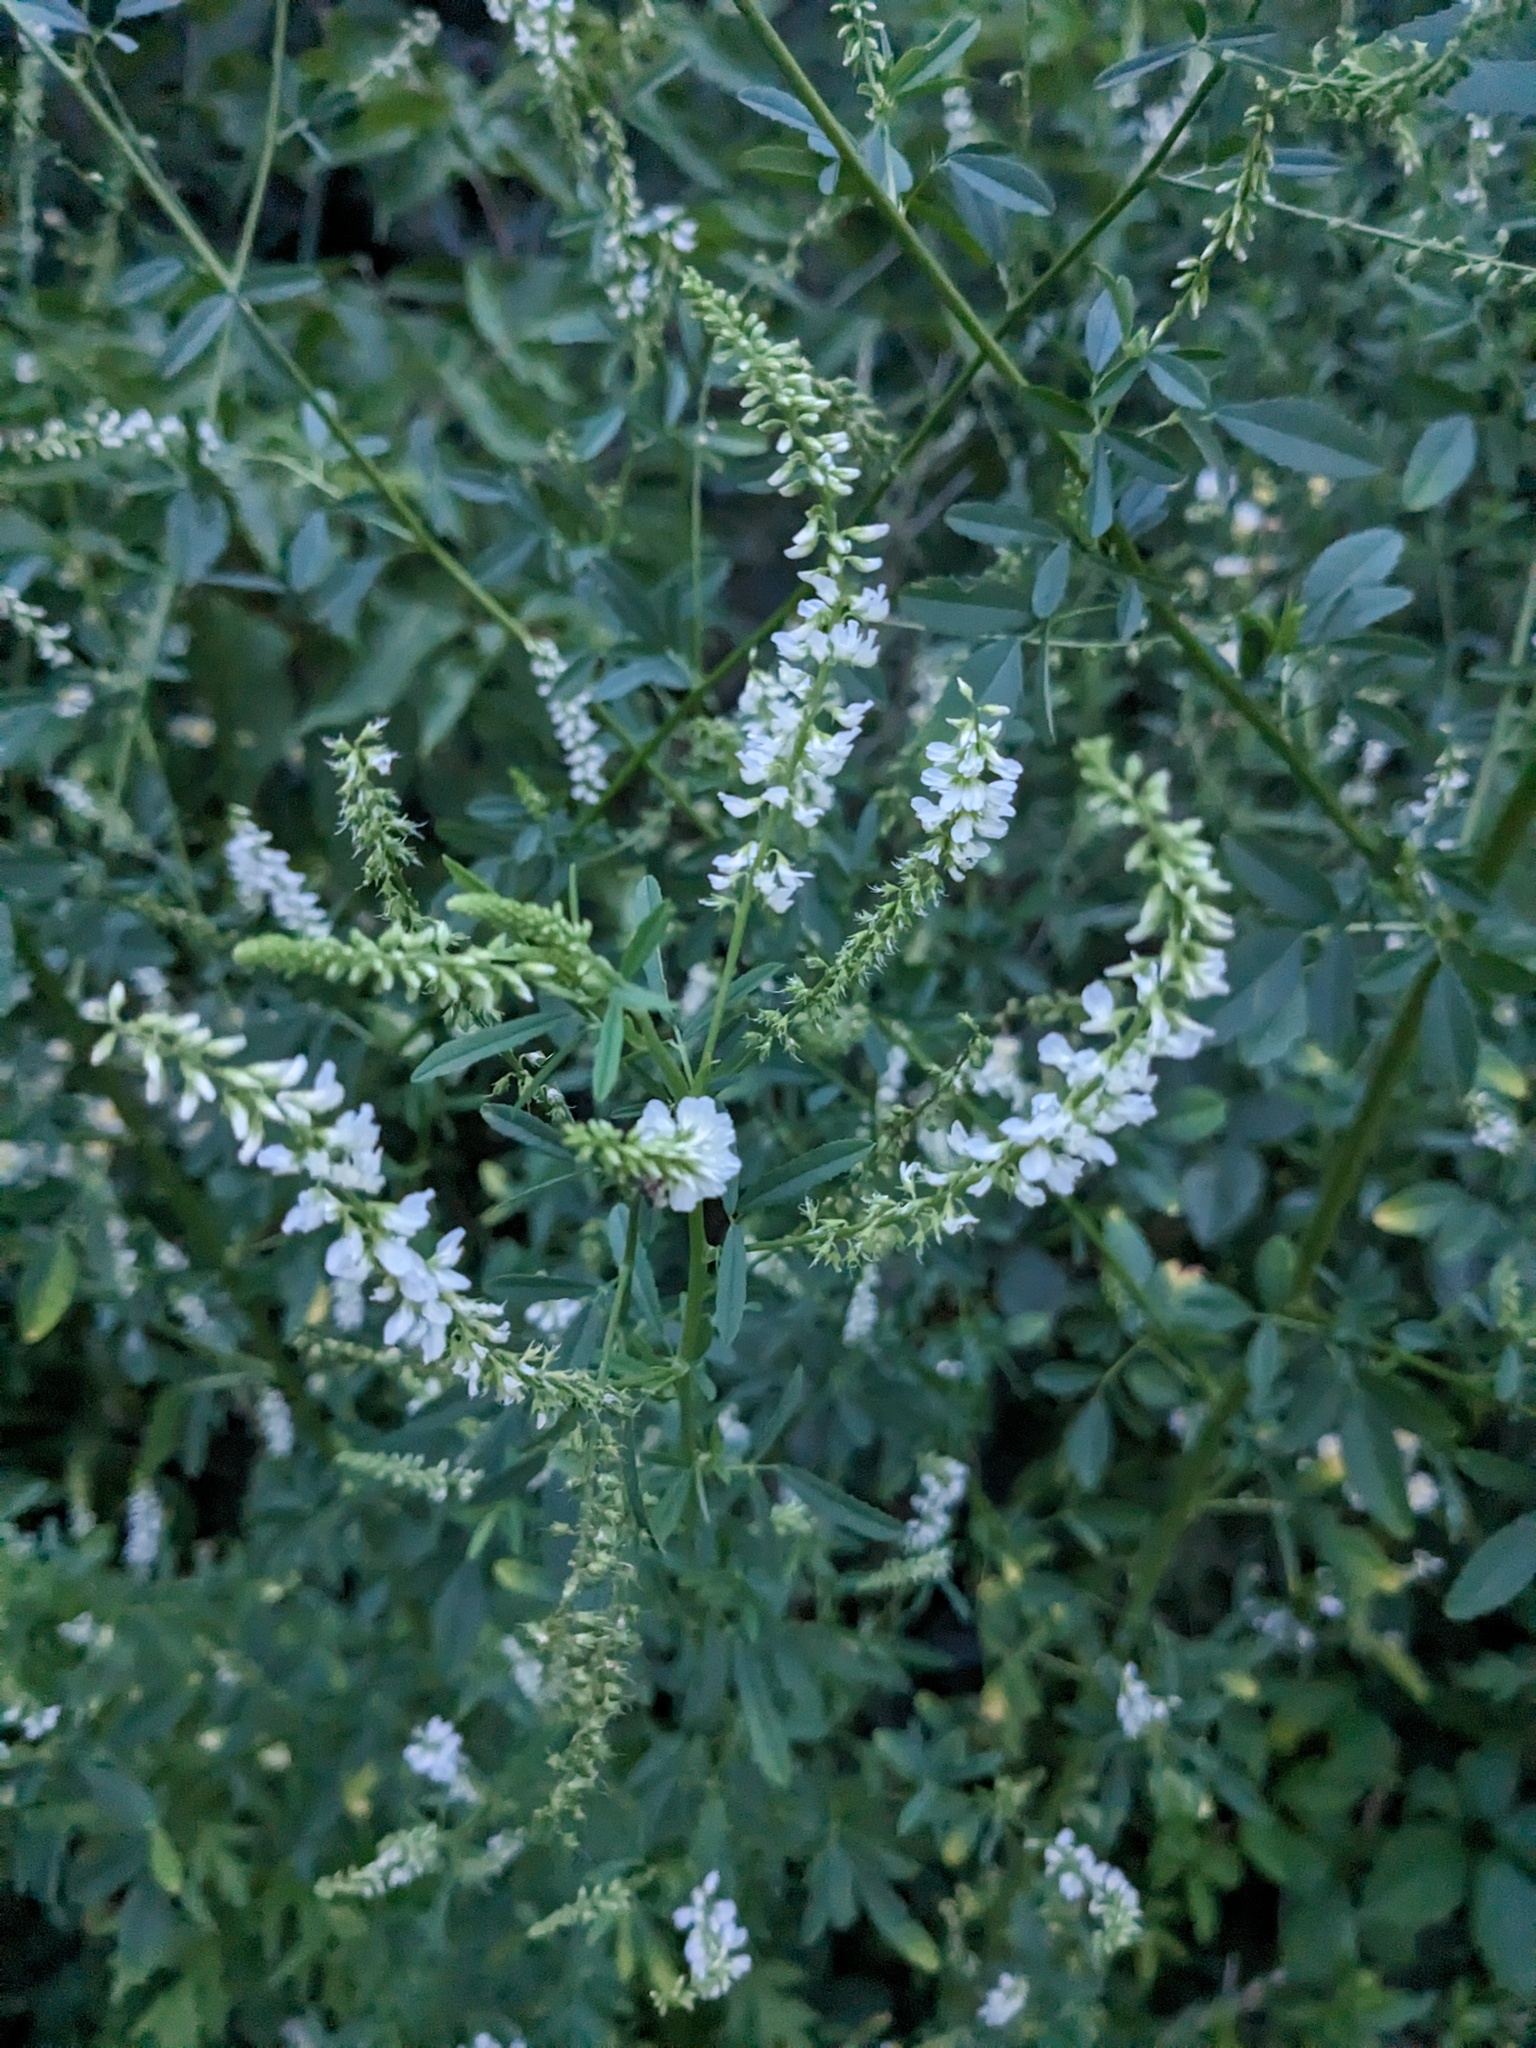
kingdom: Plantae
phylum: Tracheophyta
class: Magnoliopsida
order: Fabales
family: Fabaceae
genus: Melilotus
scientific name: Melilotus albus
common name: White melilot
